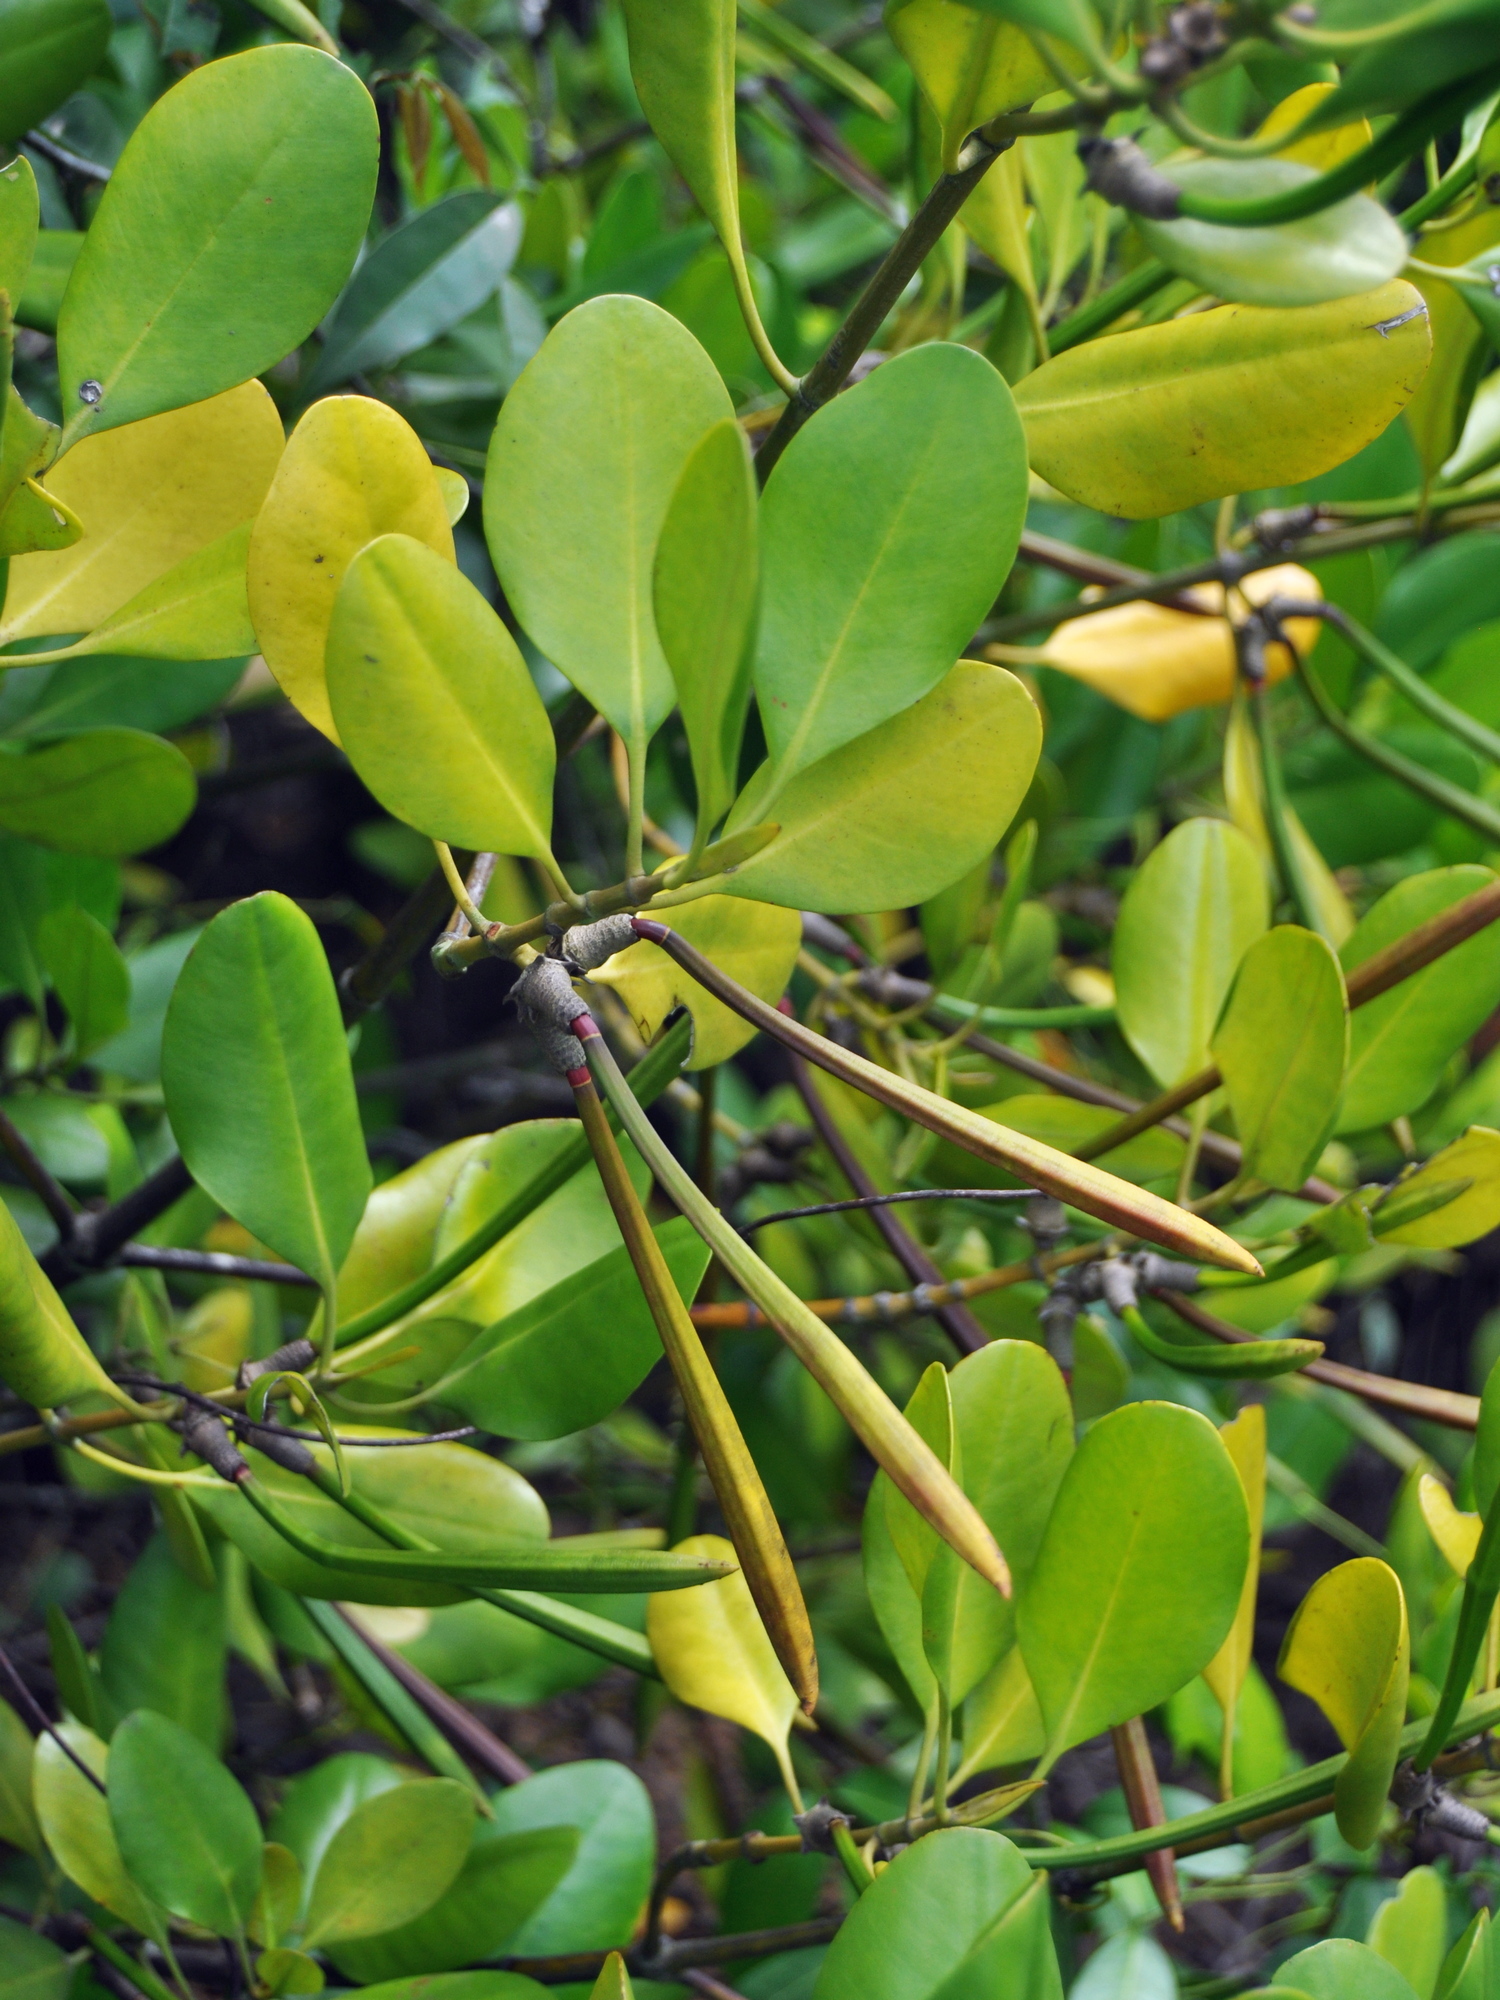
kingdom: Plantae
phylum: Tracheophyta
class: Magnoliopsida
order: Malpighiales
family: Rhizophoraceae
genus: Ceriops
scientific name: Ceriops zippeliana
